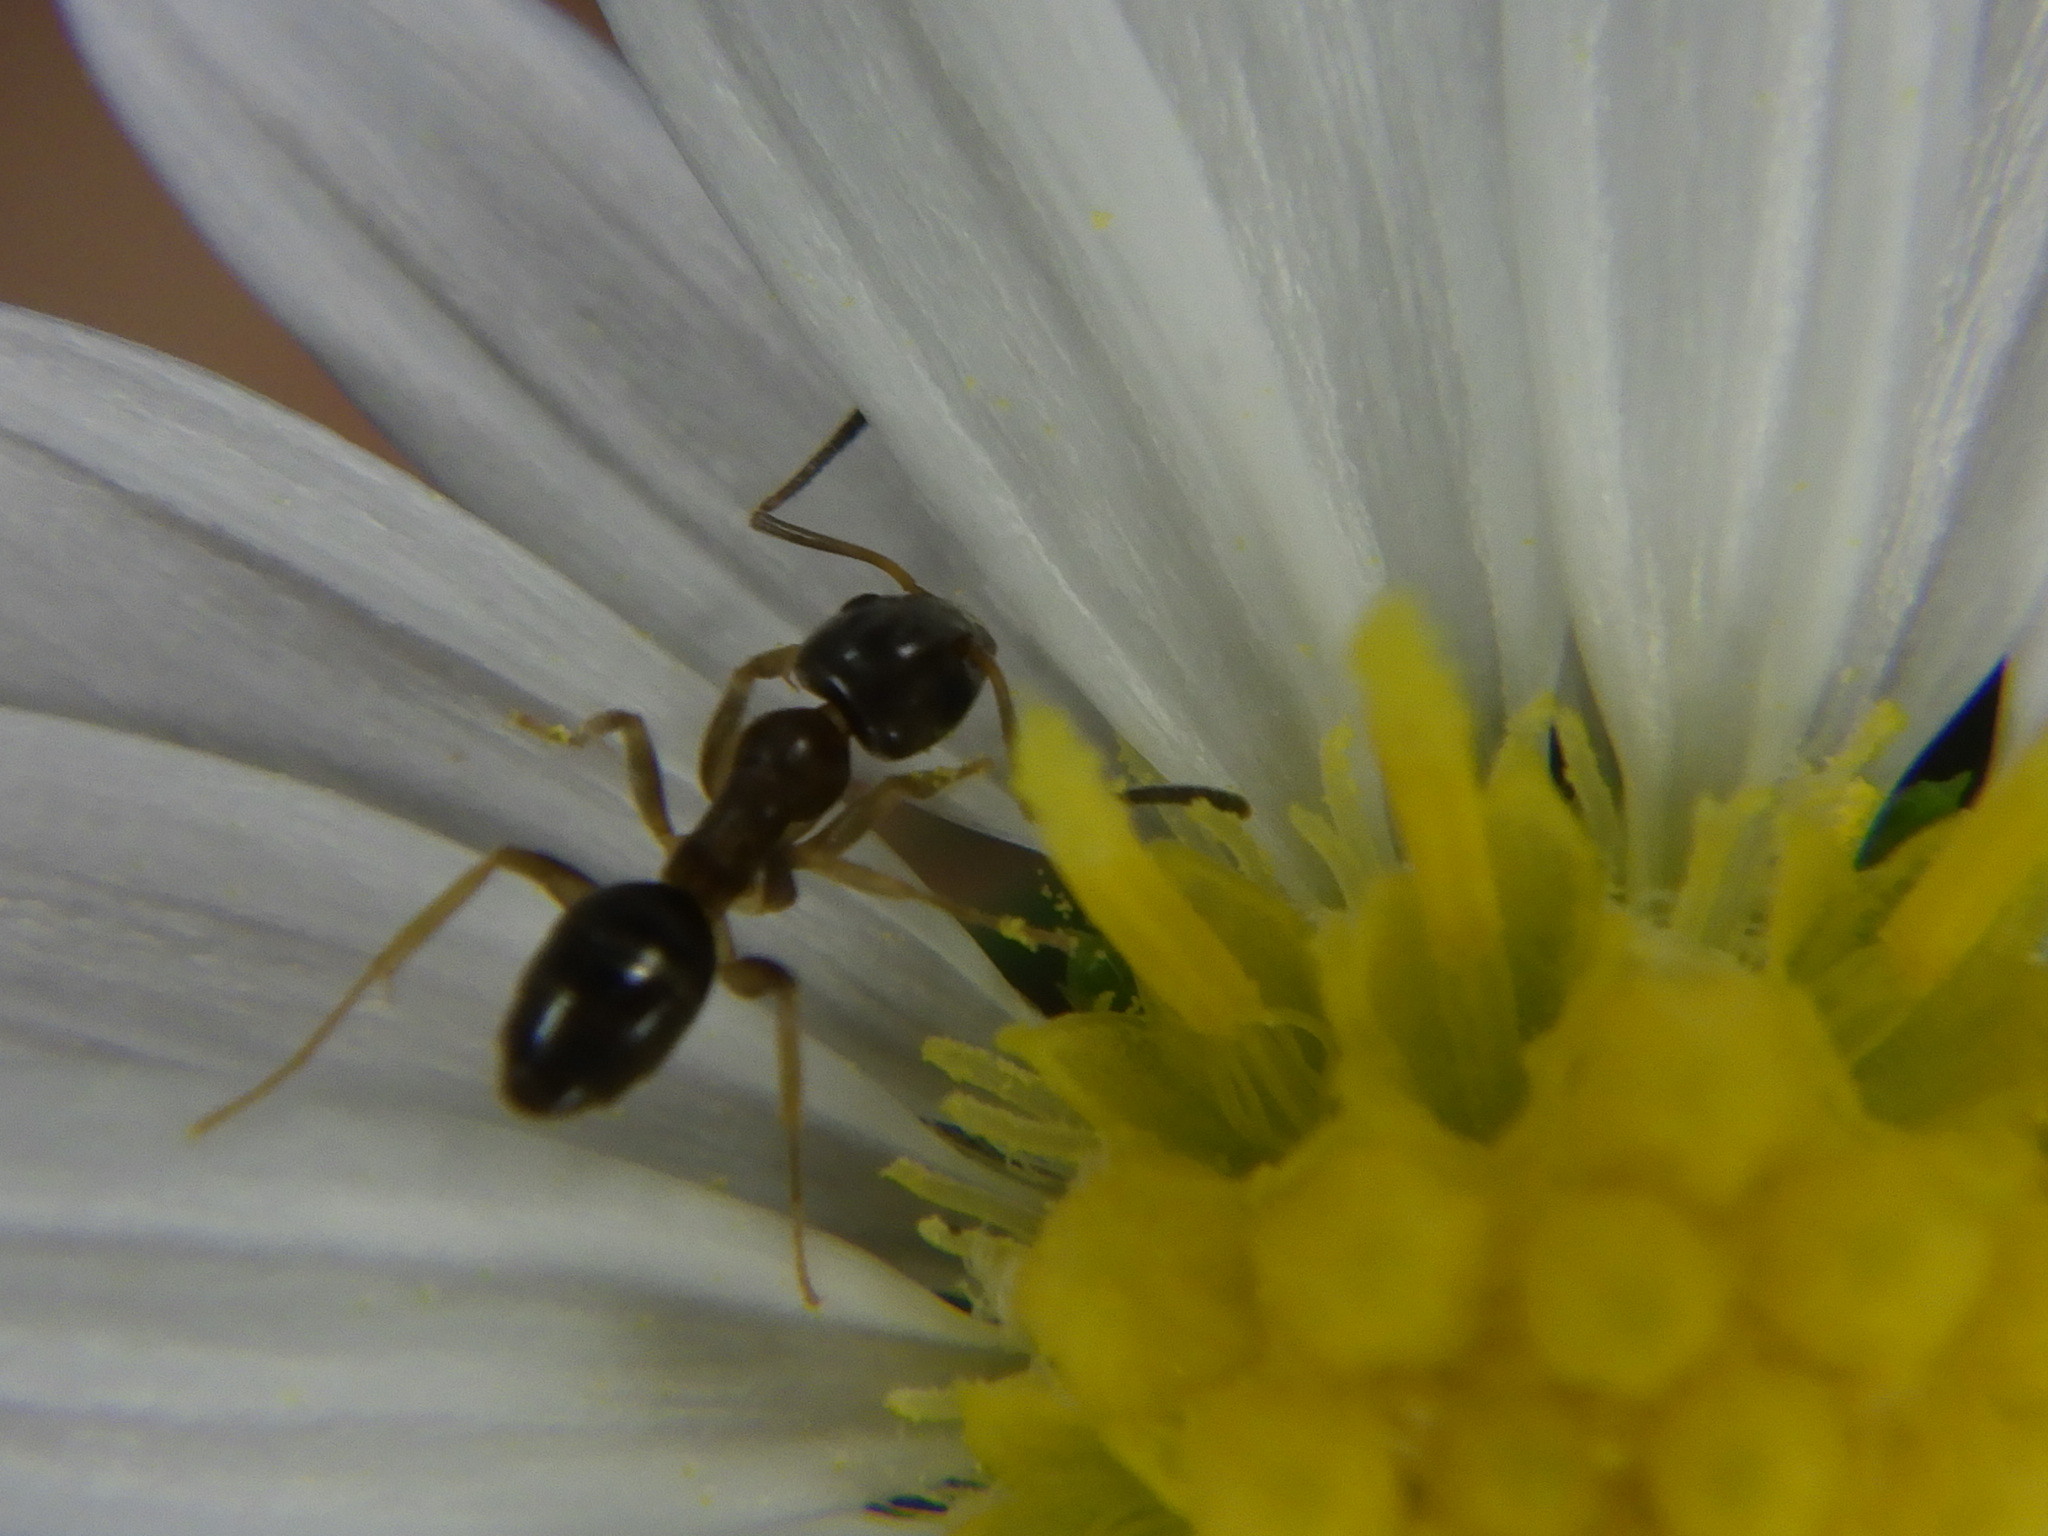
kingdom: Animalia
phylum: Arthropoda
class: Insecta
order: Hymenoptera
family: Formicidae
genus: Tapinoma
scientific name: Tapinoma sessile
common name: Odorous house ant
